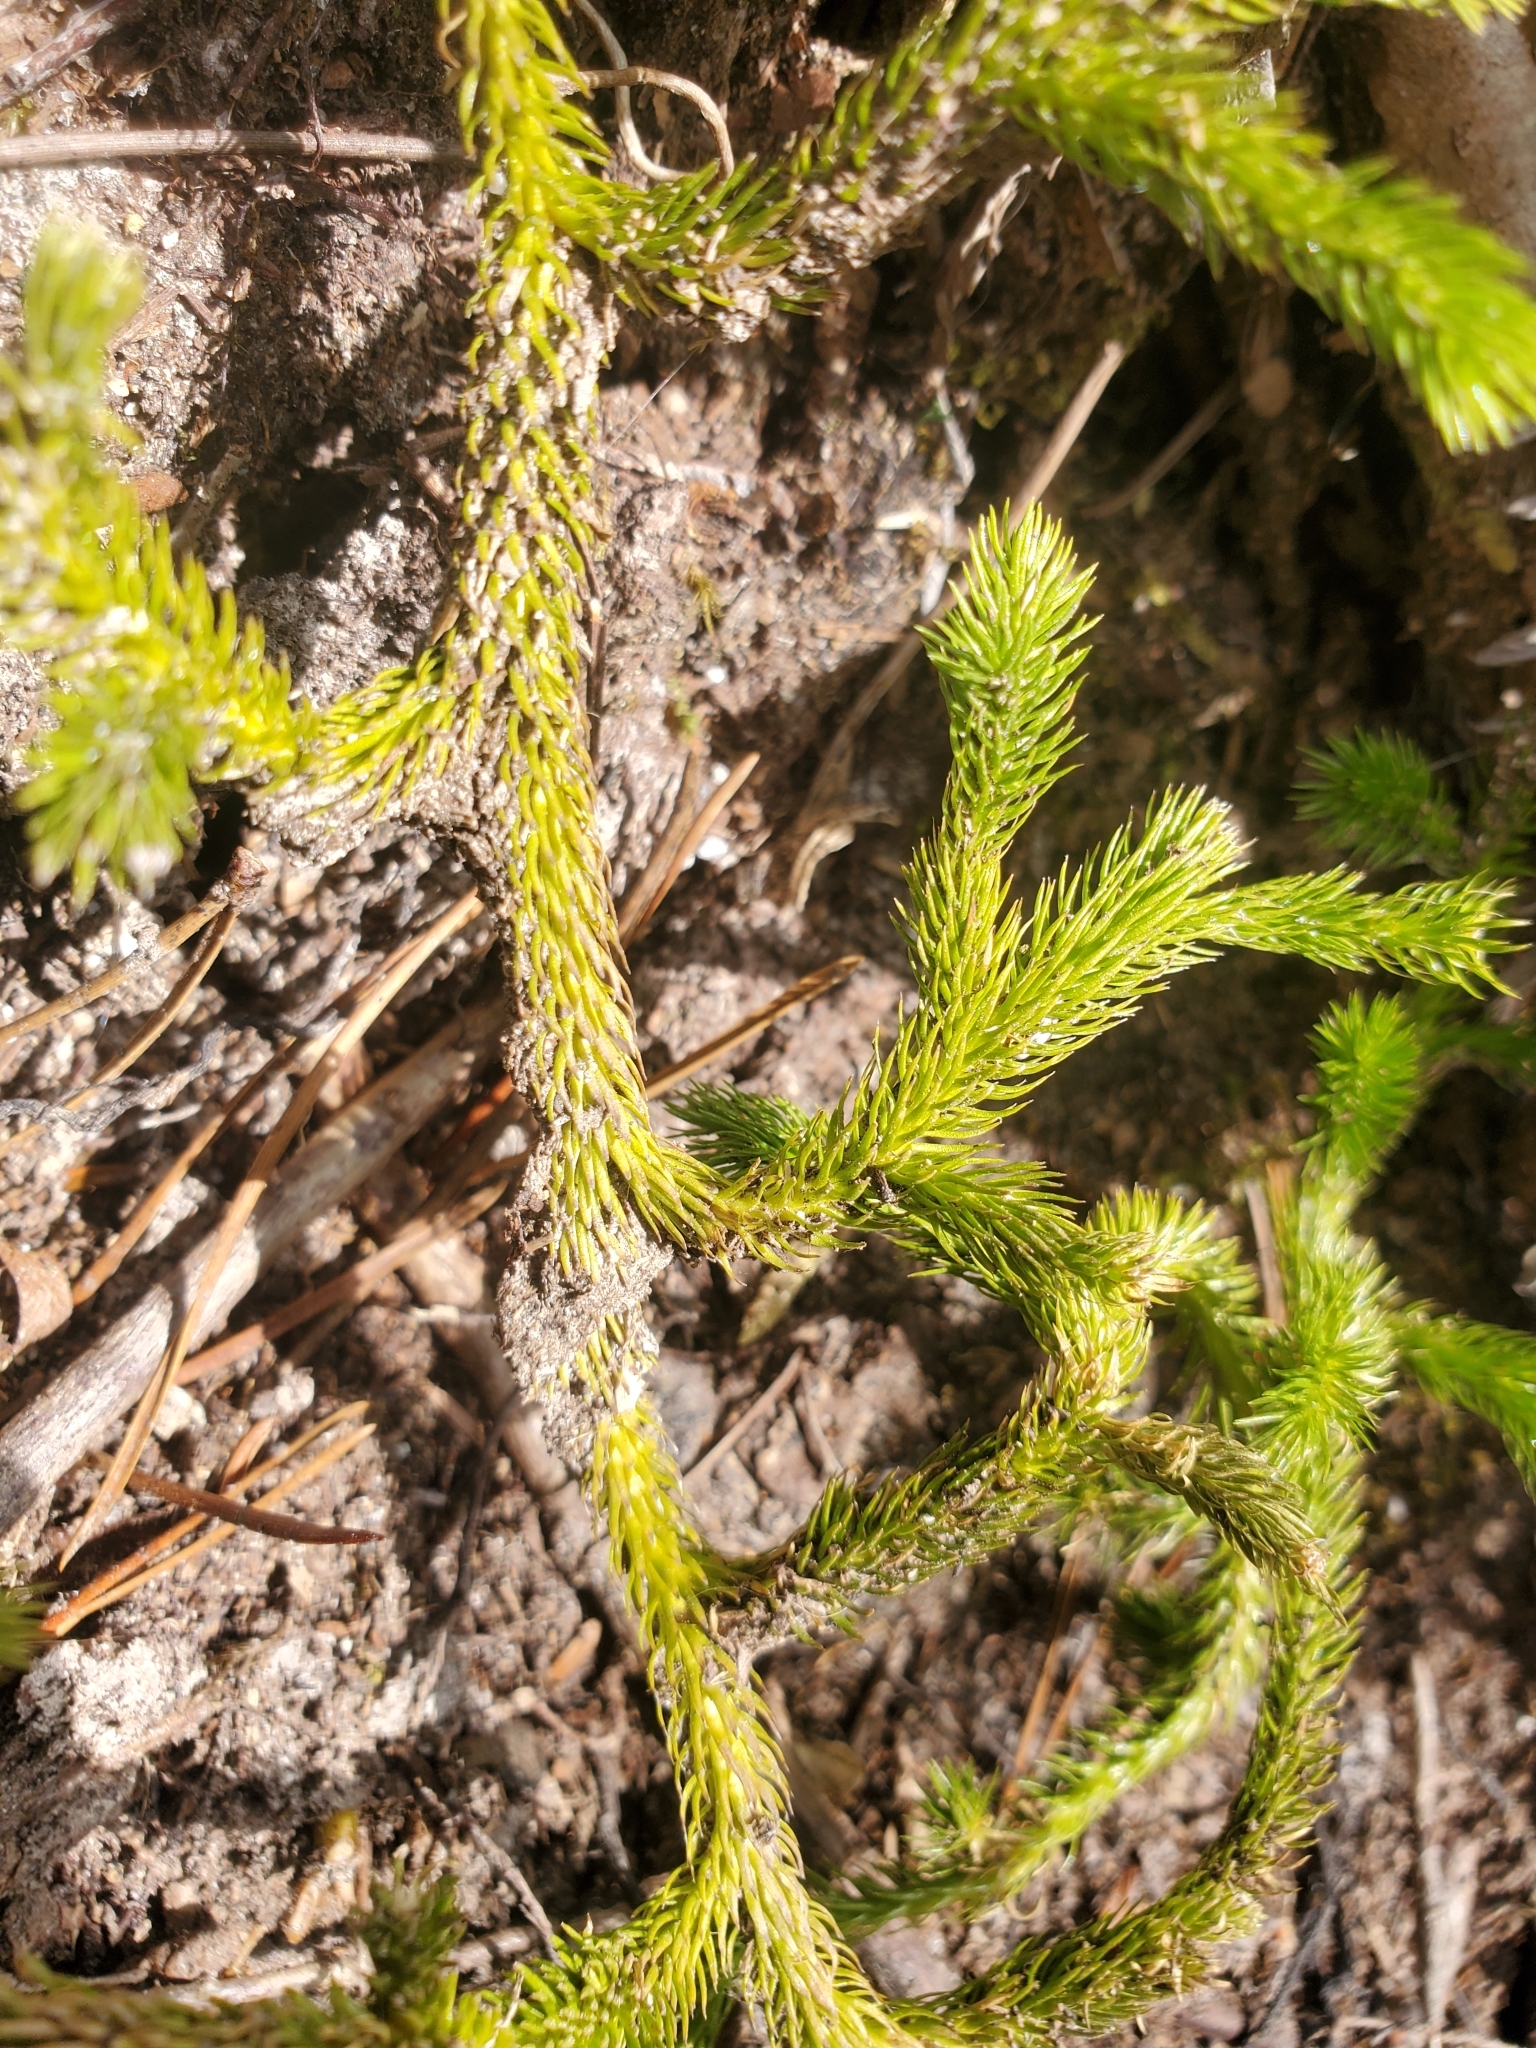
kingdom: Plantae
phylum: Tracheophyta
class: Lycopodiopsida
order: Lycopodiales
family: Lycopodiaceae
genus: Lycopodium
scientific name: Lycopodium clavatum
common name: Stag's-horn clubmoss
